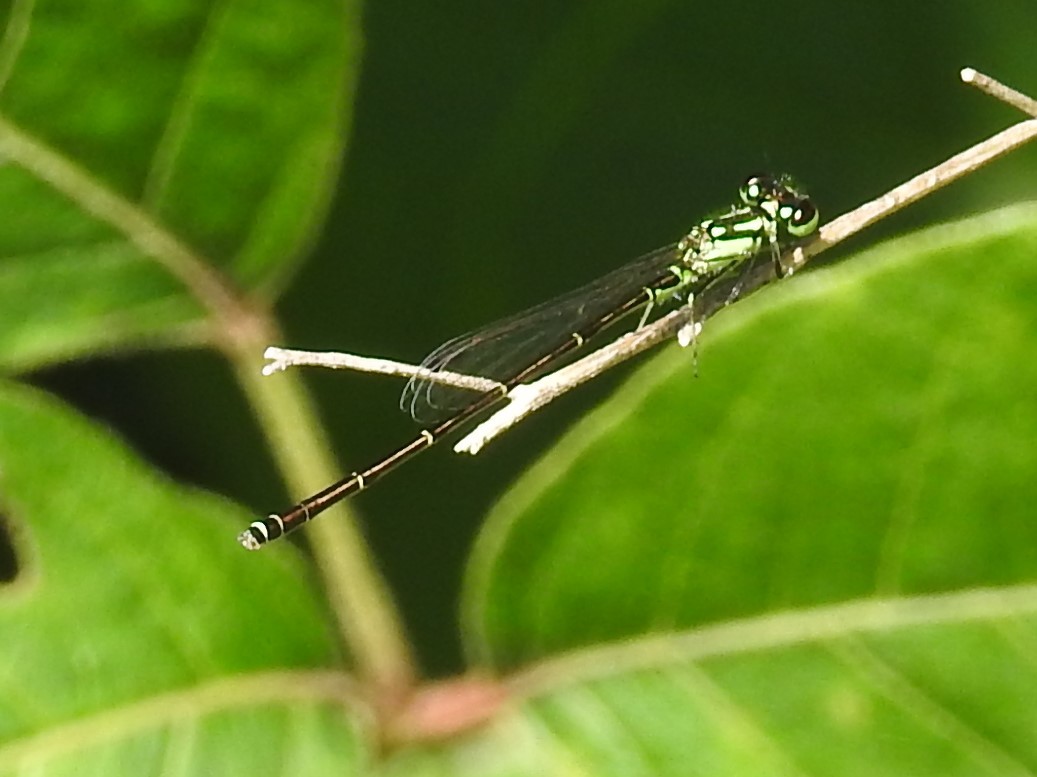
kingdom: Animalia
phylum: Arthropoda
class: Insecta
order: Odonata
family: Coenagrionidae
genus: Ischnura
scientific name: Ischnura posita
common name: Fragile forktail
